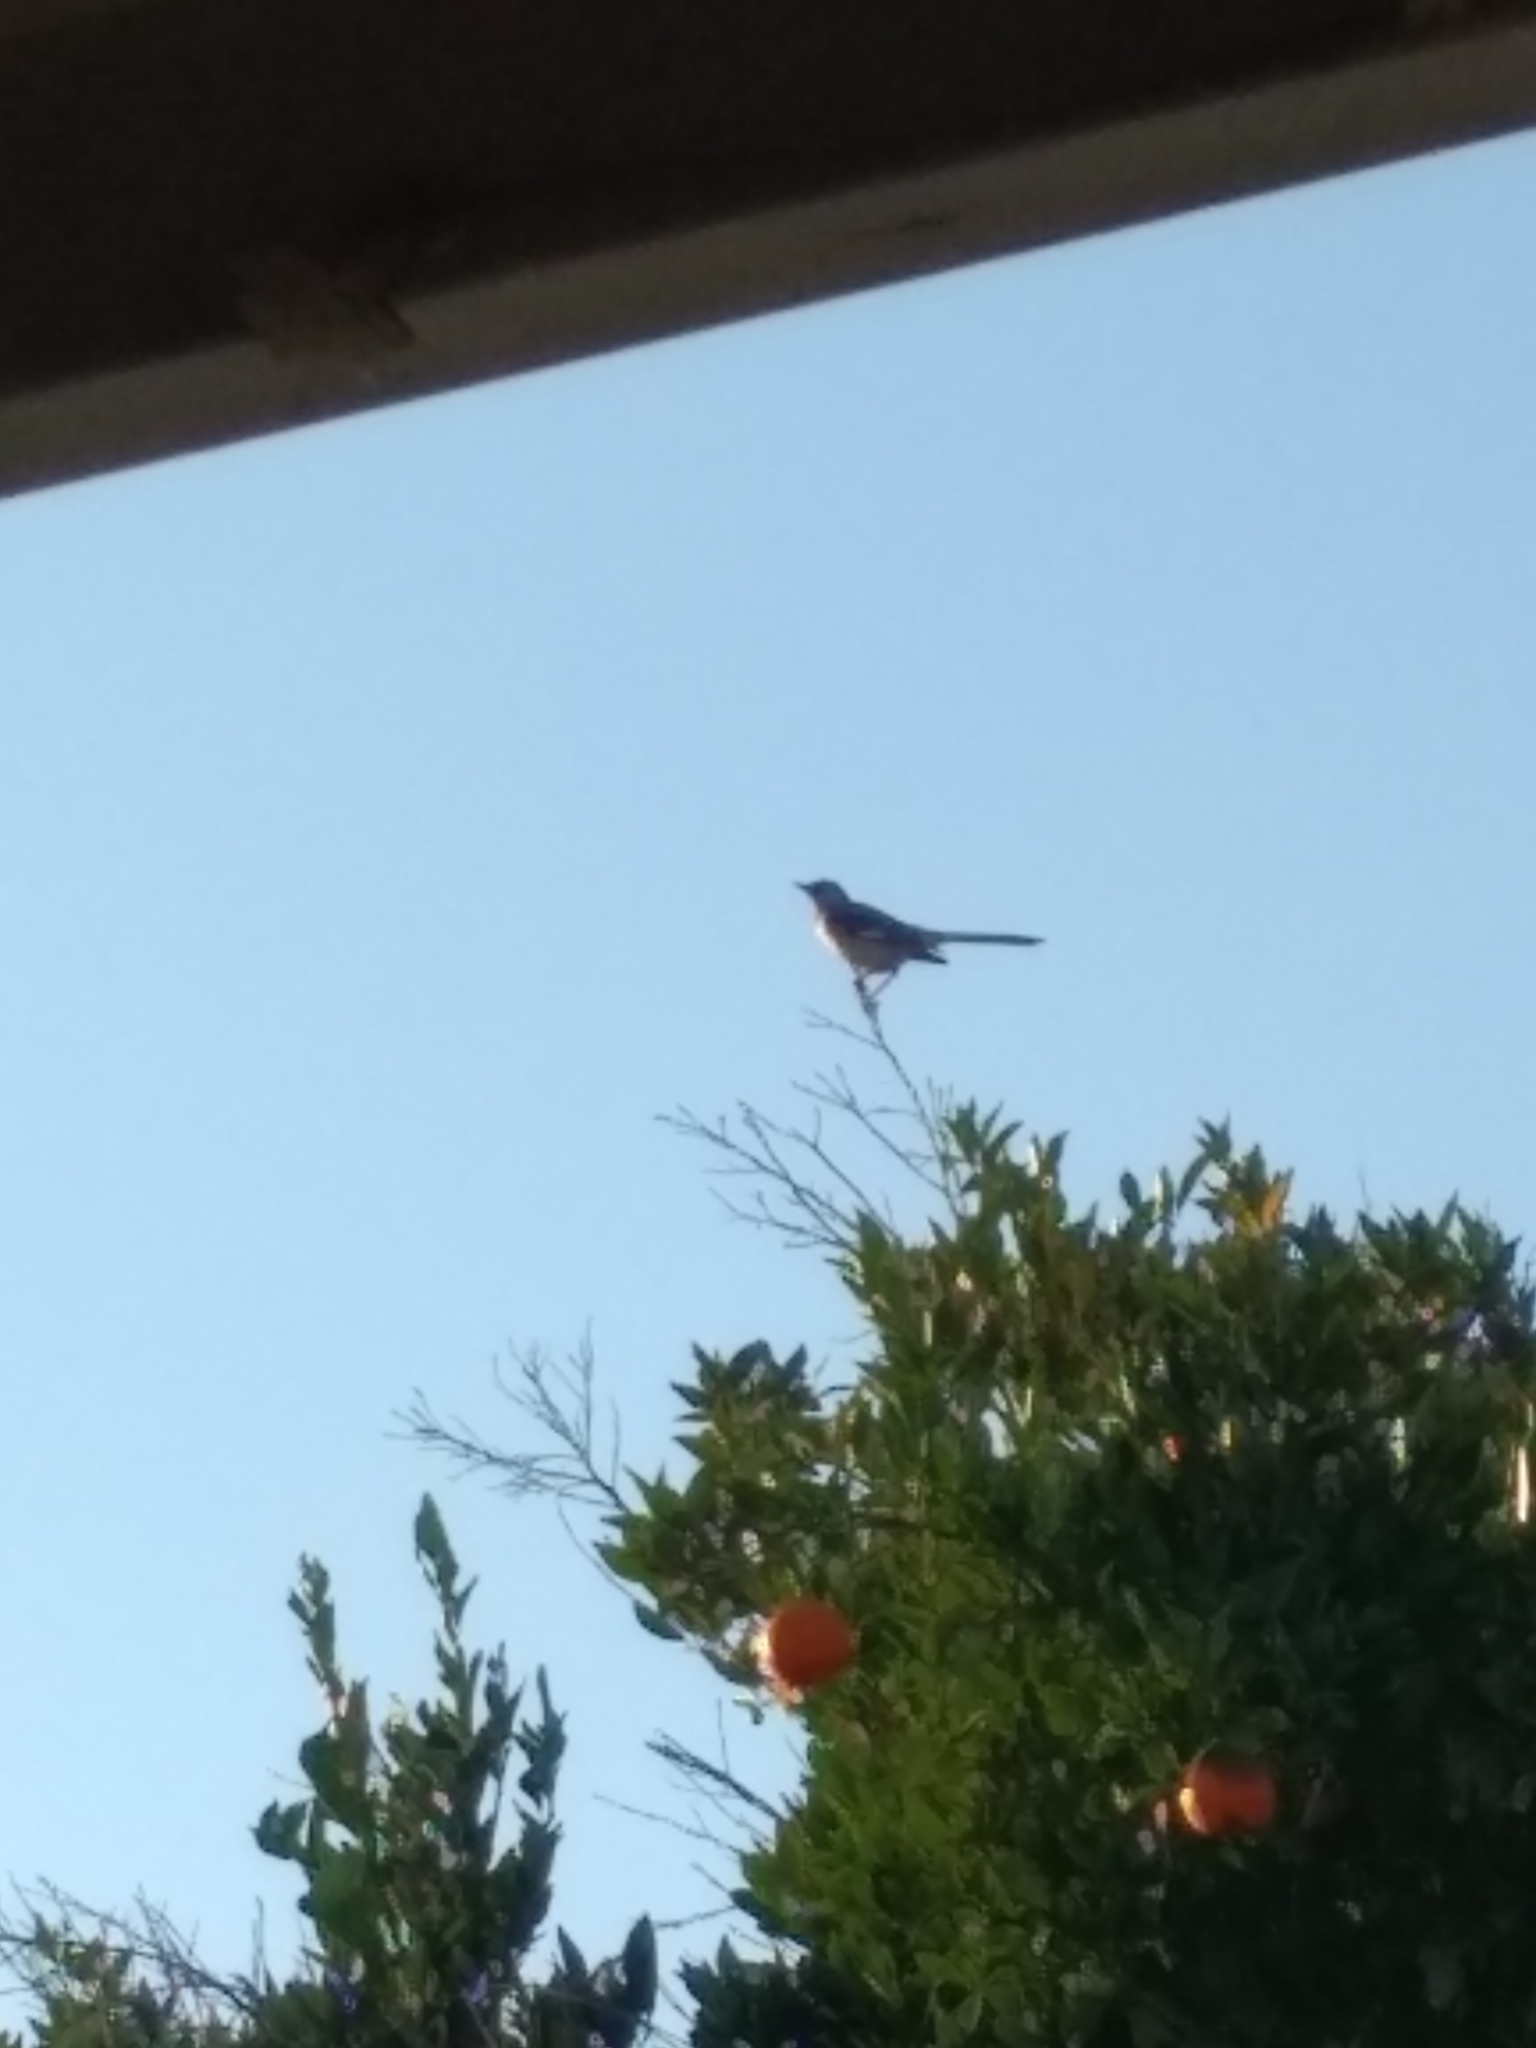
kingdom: Animalia
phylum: Chordata
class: Aves
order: Passeriformes
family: Mimidae
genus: Mimus
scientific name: Mimus polyglottos
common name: Northern mockingbird
